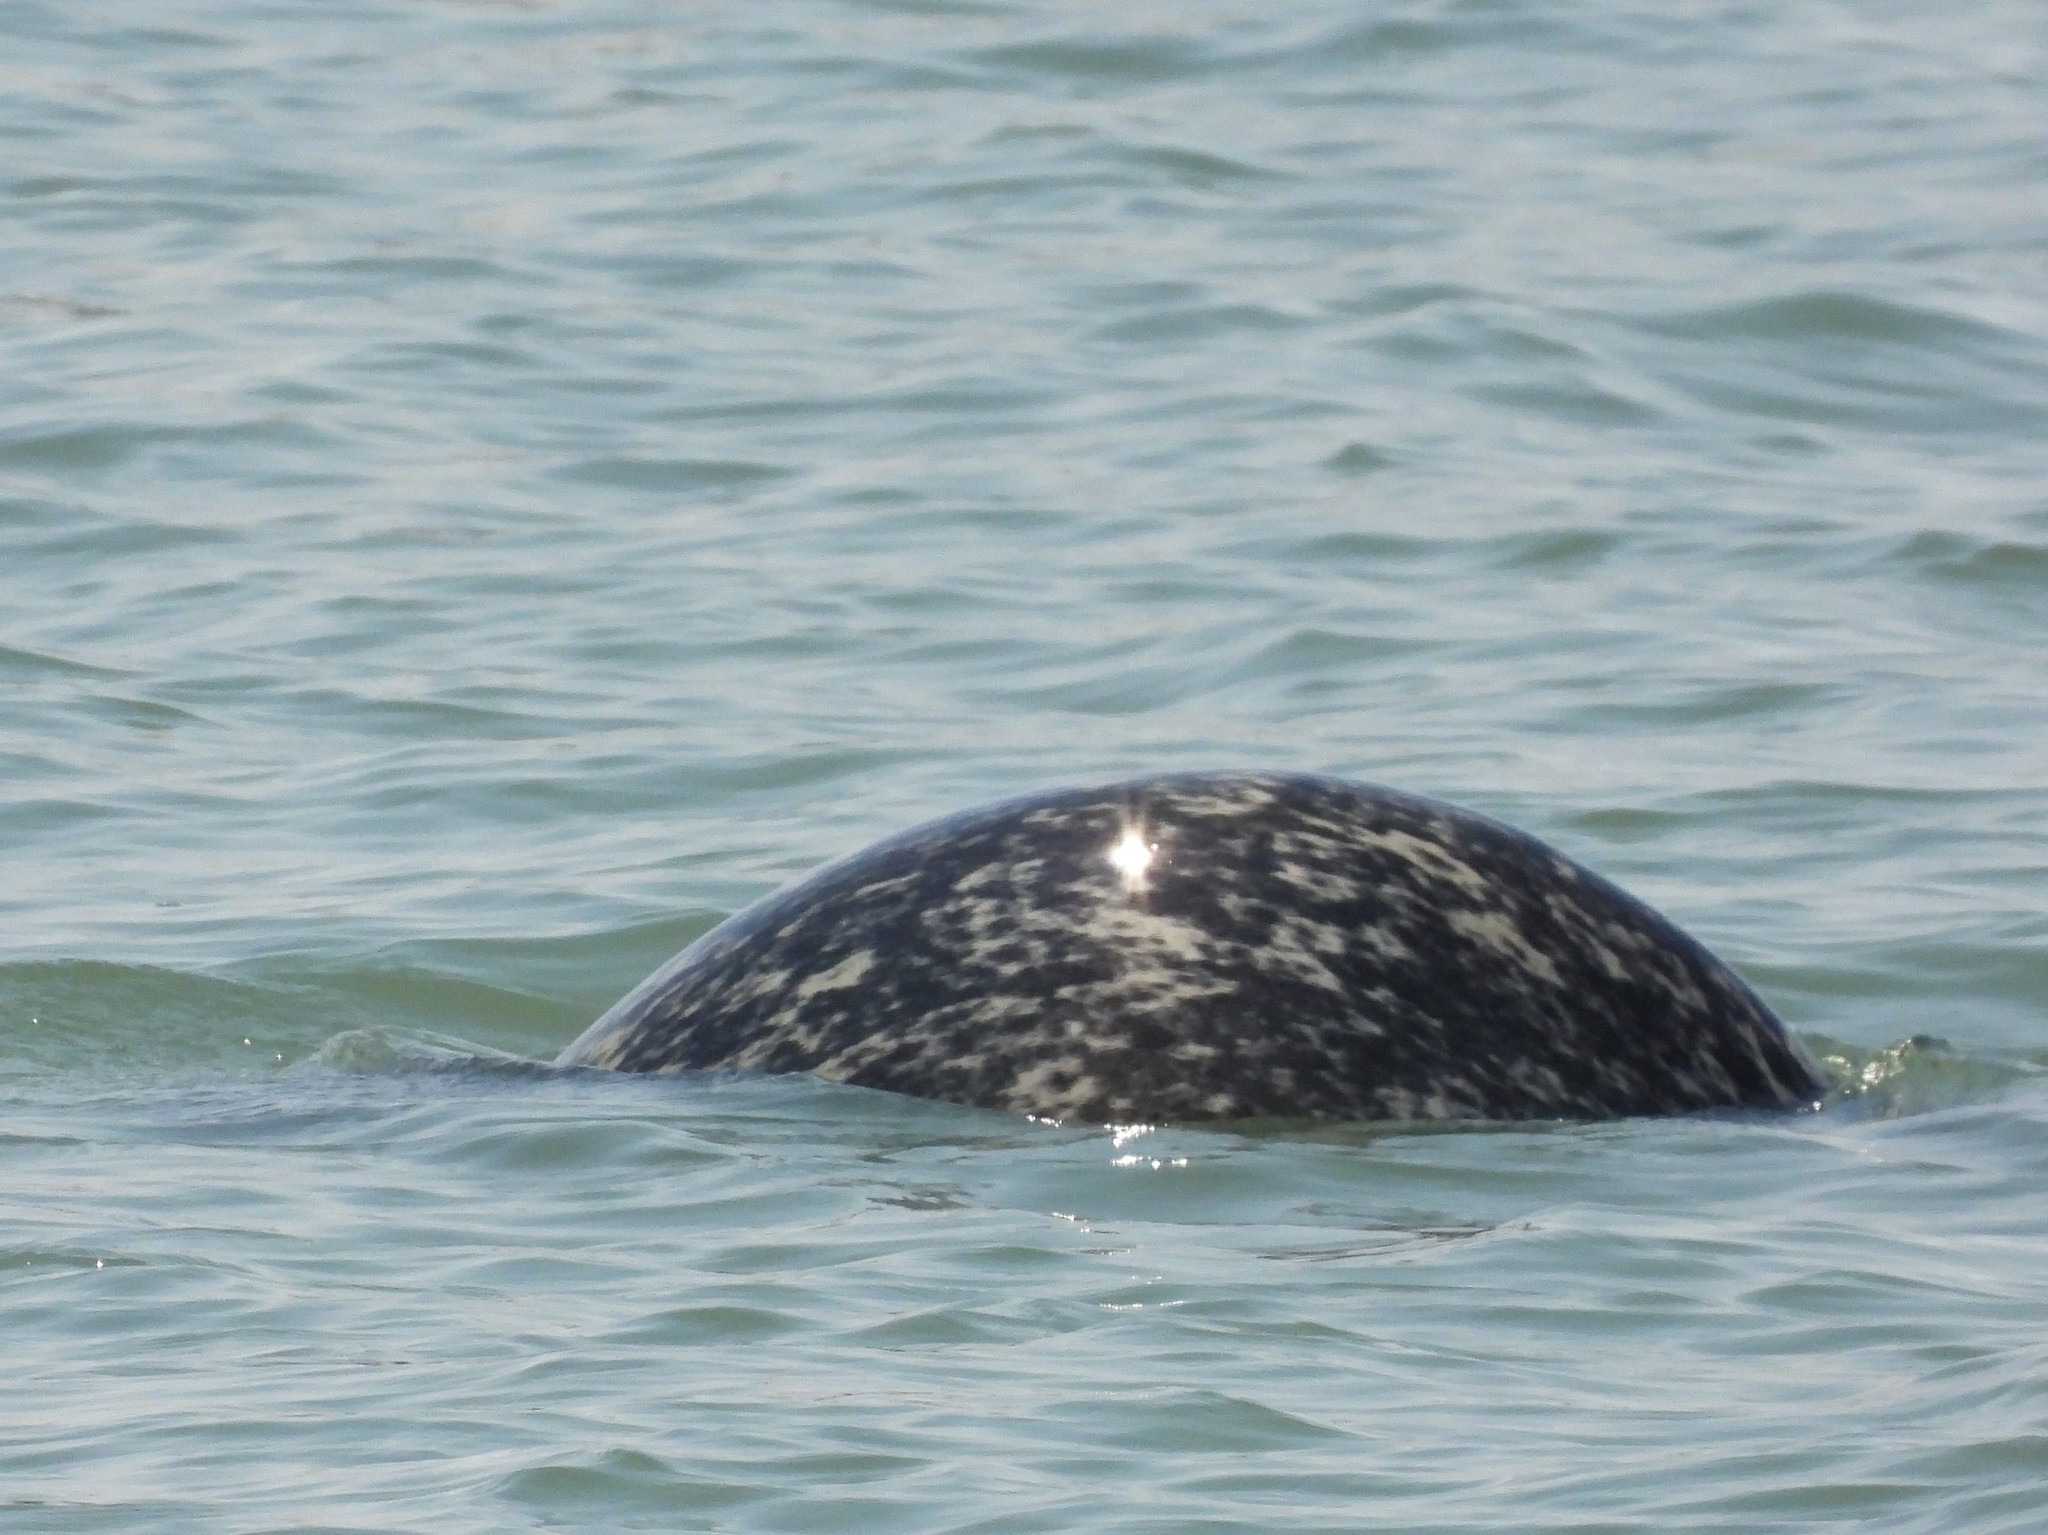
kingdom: Animalia
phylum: Chordata
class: Mammalia
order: Carnivora
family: Phocidae
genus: Phoca
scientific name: Phoca vitulina
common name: Harbor seal
